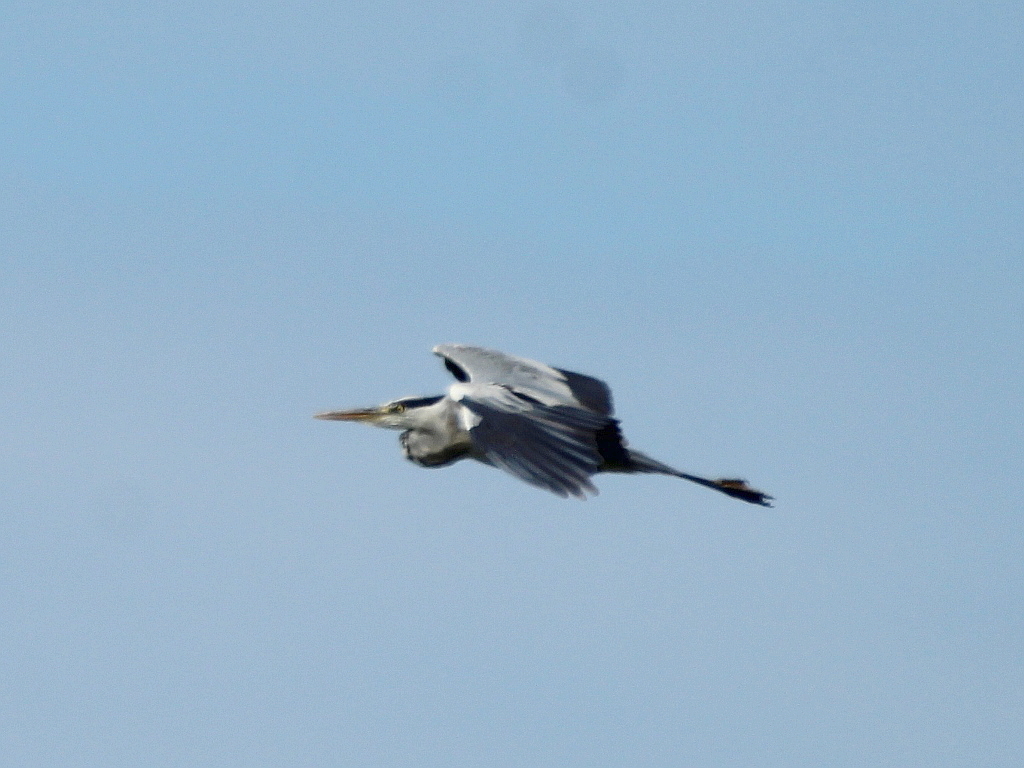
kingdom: Animalia
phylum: Chordata
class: Aves
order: Pelecaniformes
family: Ardeidae
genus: Ardea
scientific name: Ardea cinerea
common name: Grey heron
